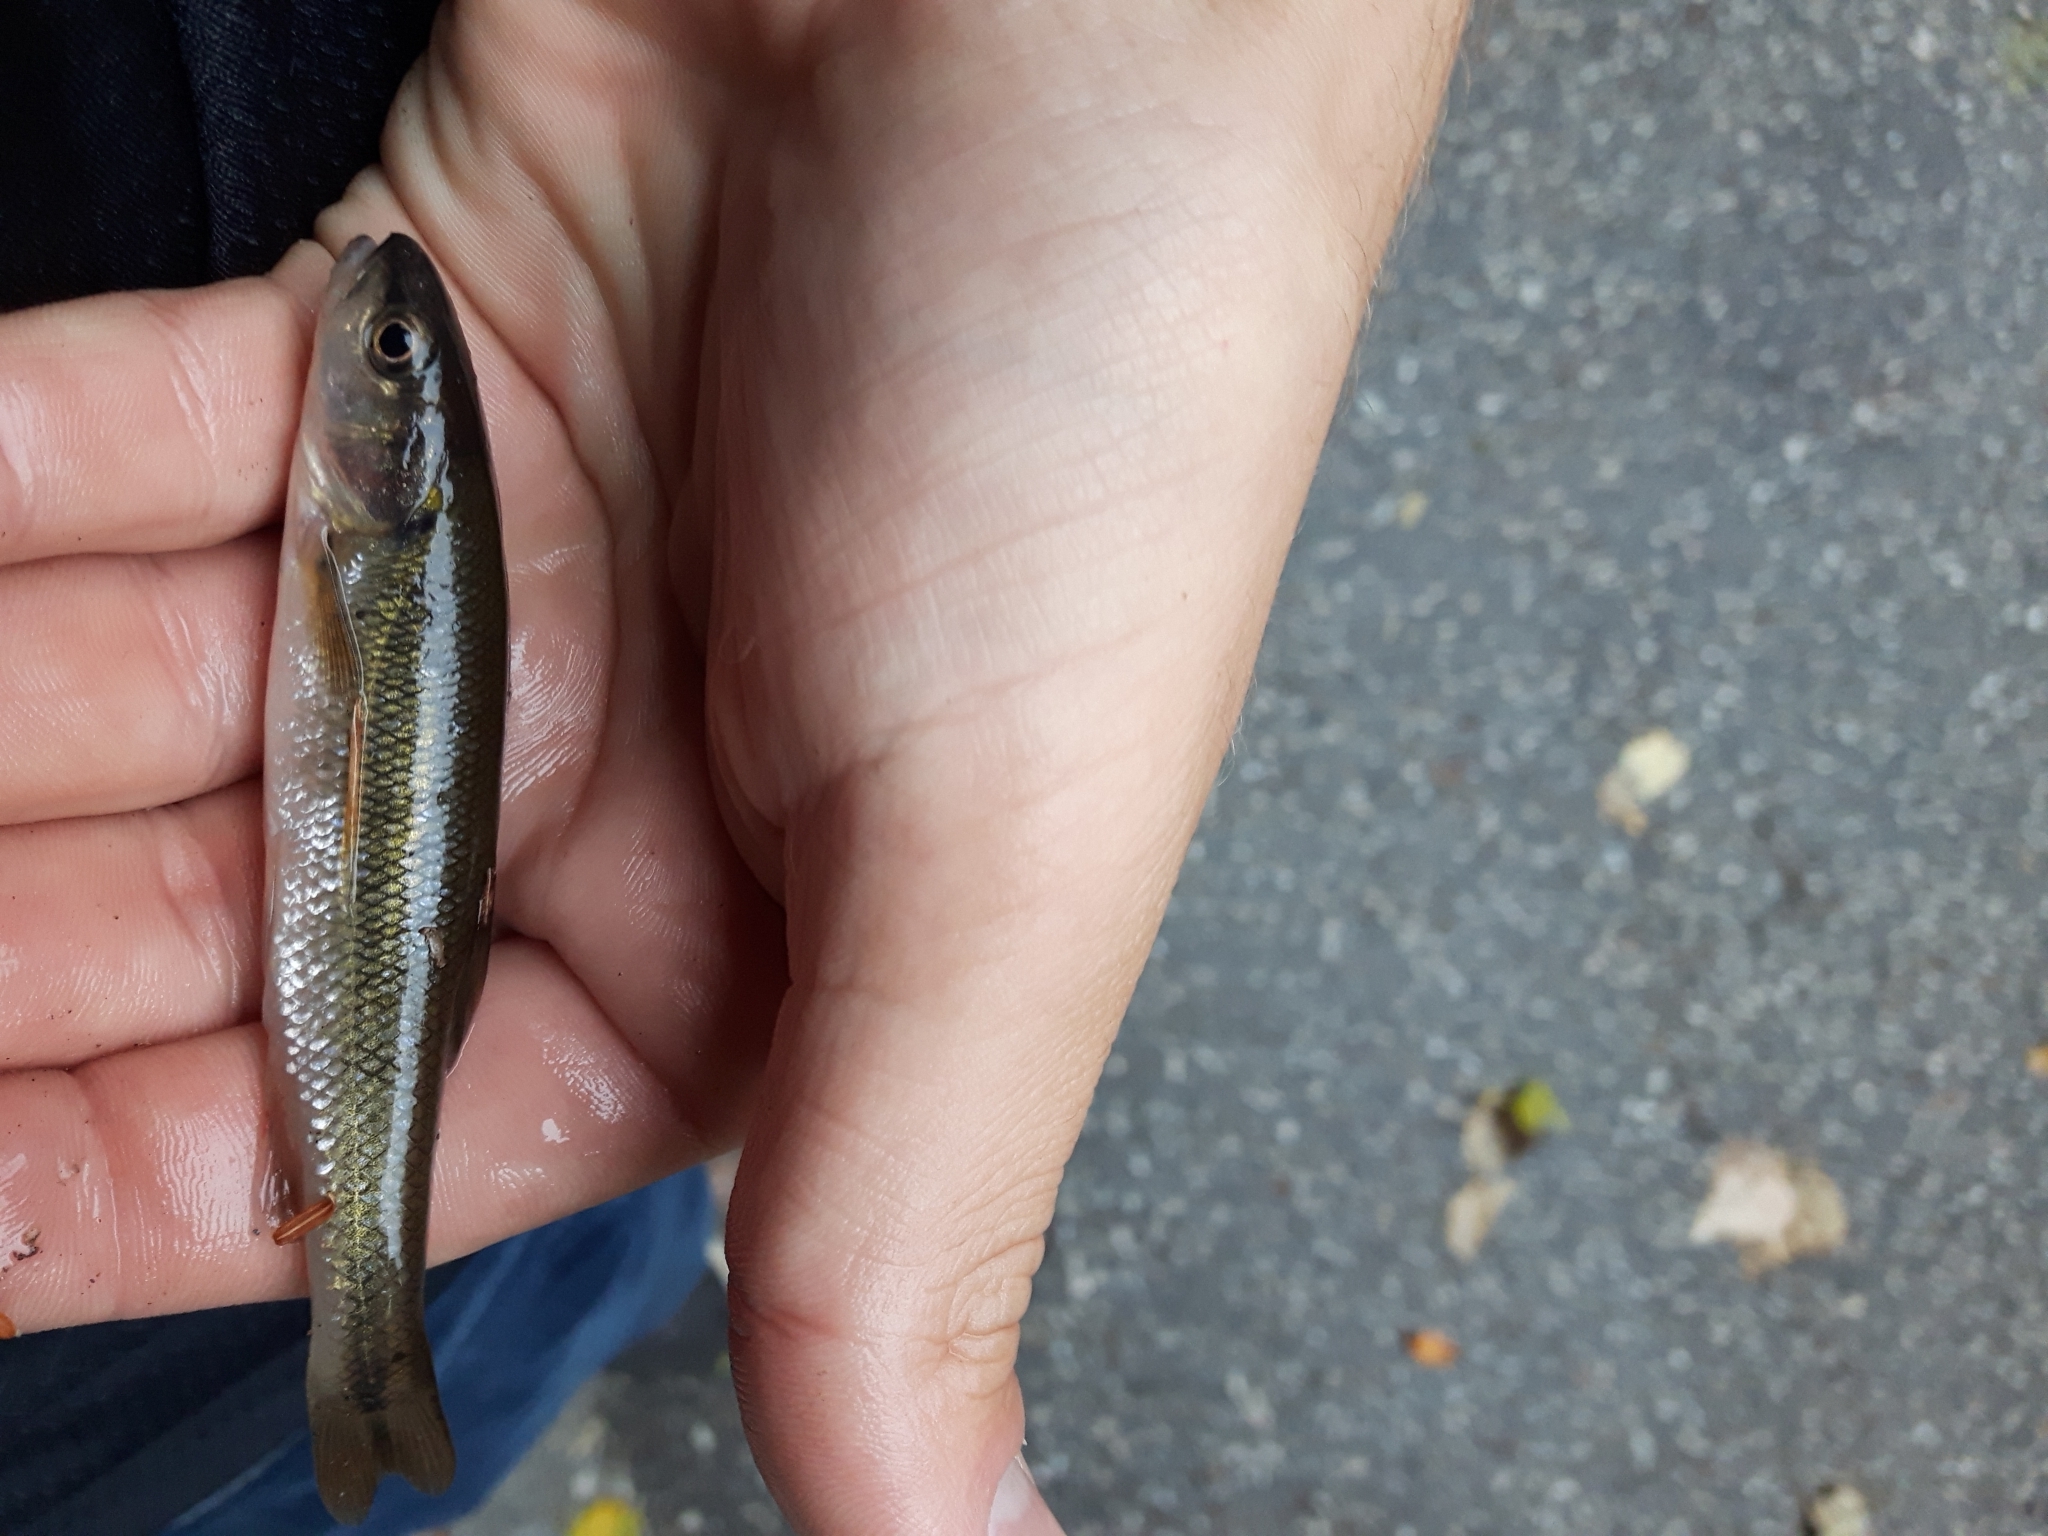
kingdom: Animalia
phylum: Chordata
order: Cypriniformes
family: Cyprinidae
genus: Semotilus
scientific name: Semotilus atromaculatus
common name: Creek chub
